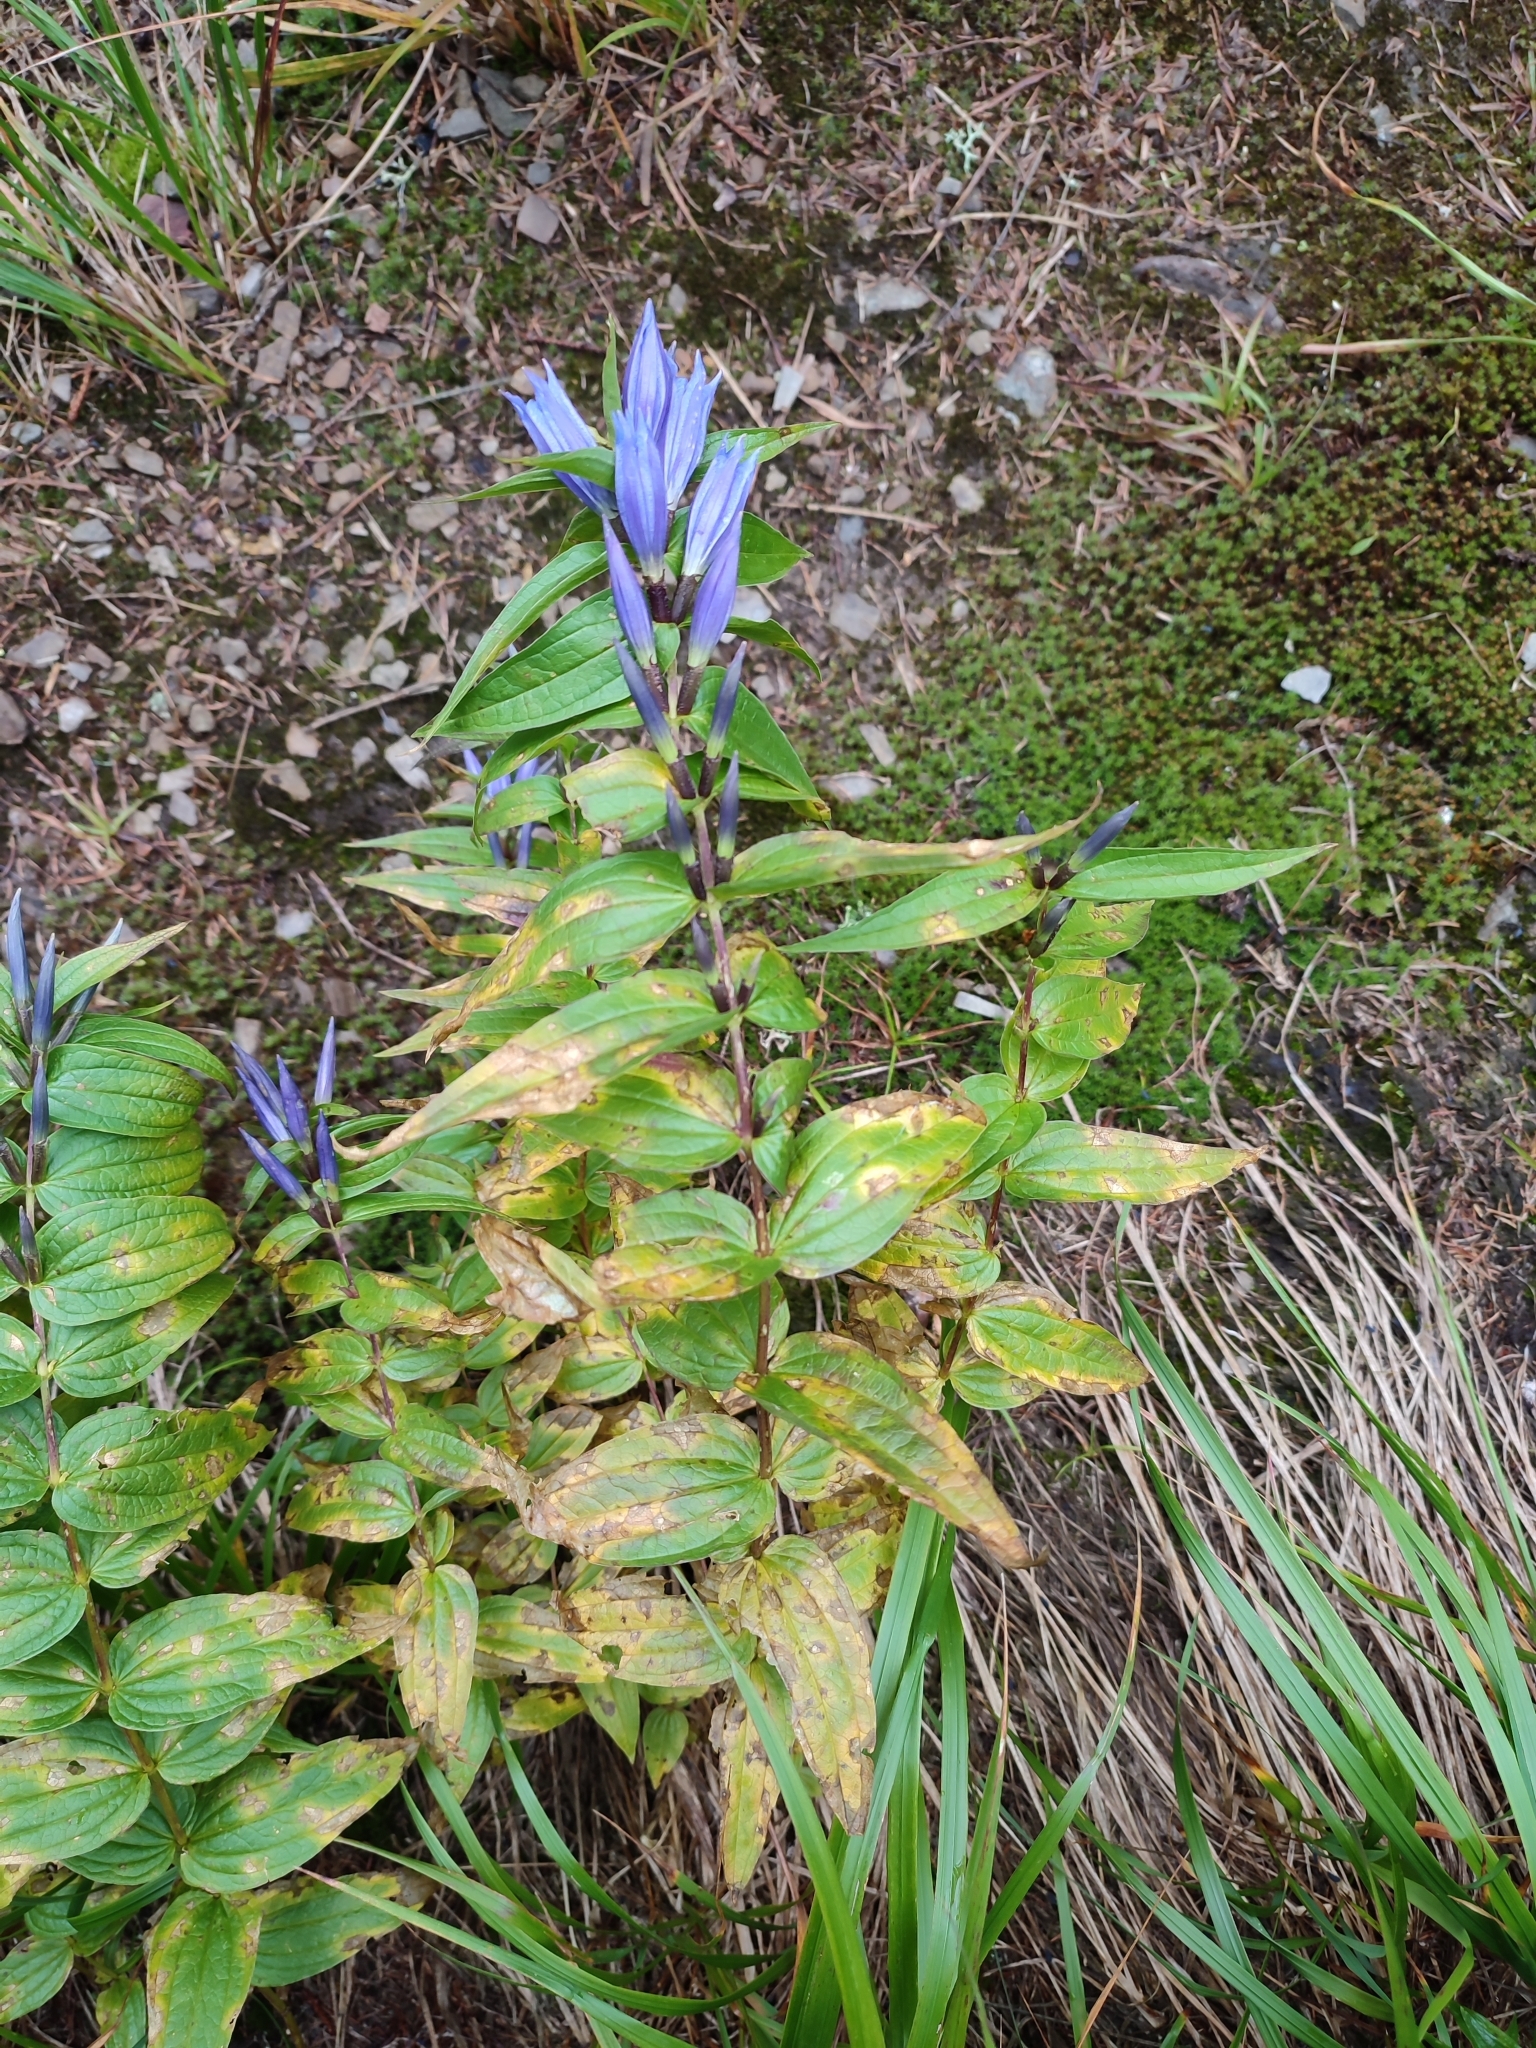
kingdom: Plantae
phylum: Tracheophyta
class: Magnoliopsida
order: Gentianales
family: Gentianaceae
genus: Gentiana
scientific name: Gentiana asclepiadea
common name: Willow gentian
